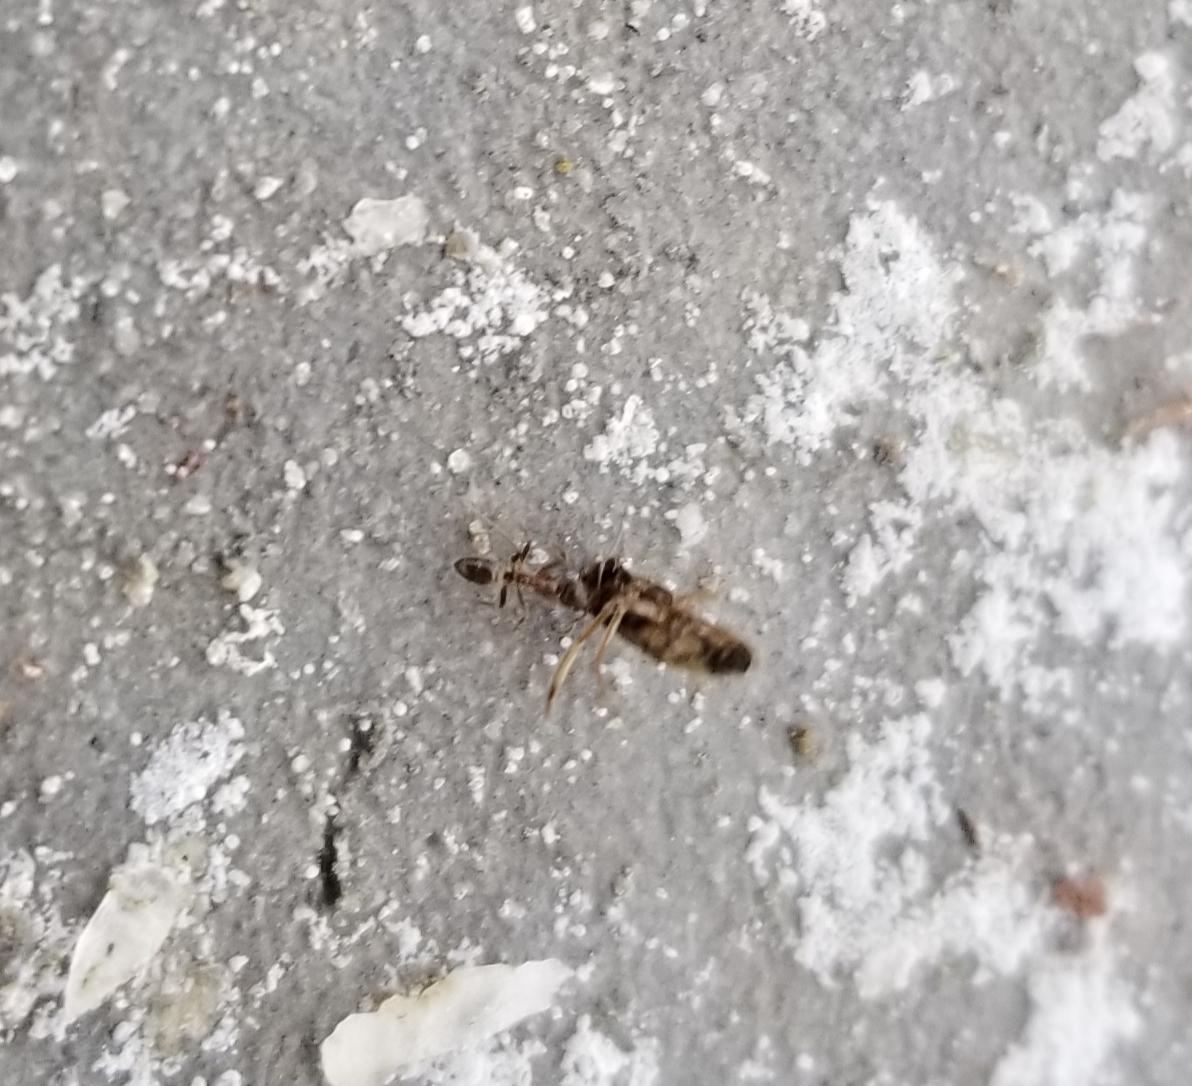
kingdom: Animalia
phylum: Arthropoda
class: Insecta
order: Hymenoptera
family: Formicidae
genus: Linepithema
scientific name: Linepithema humile
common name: Argentine ant
